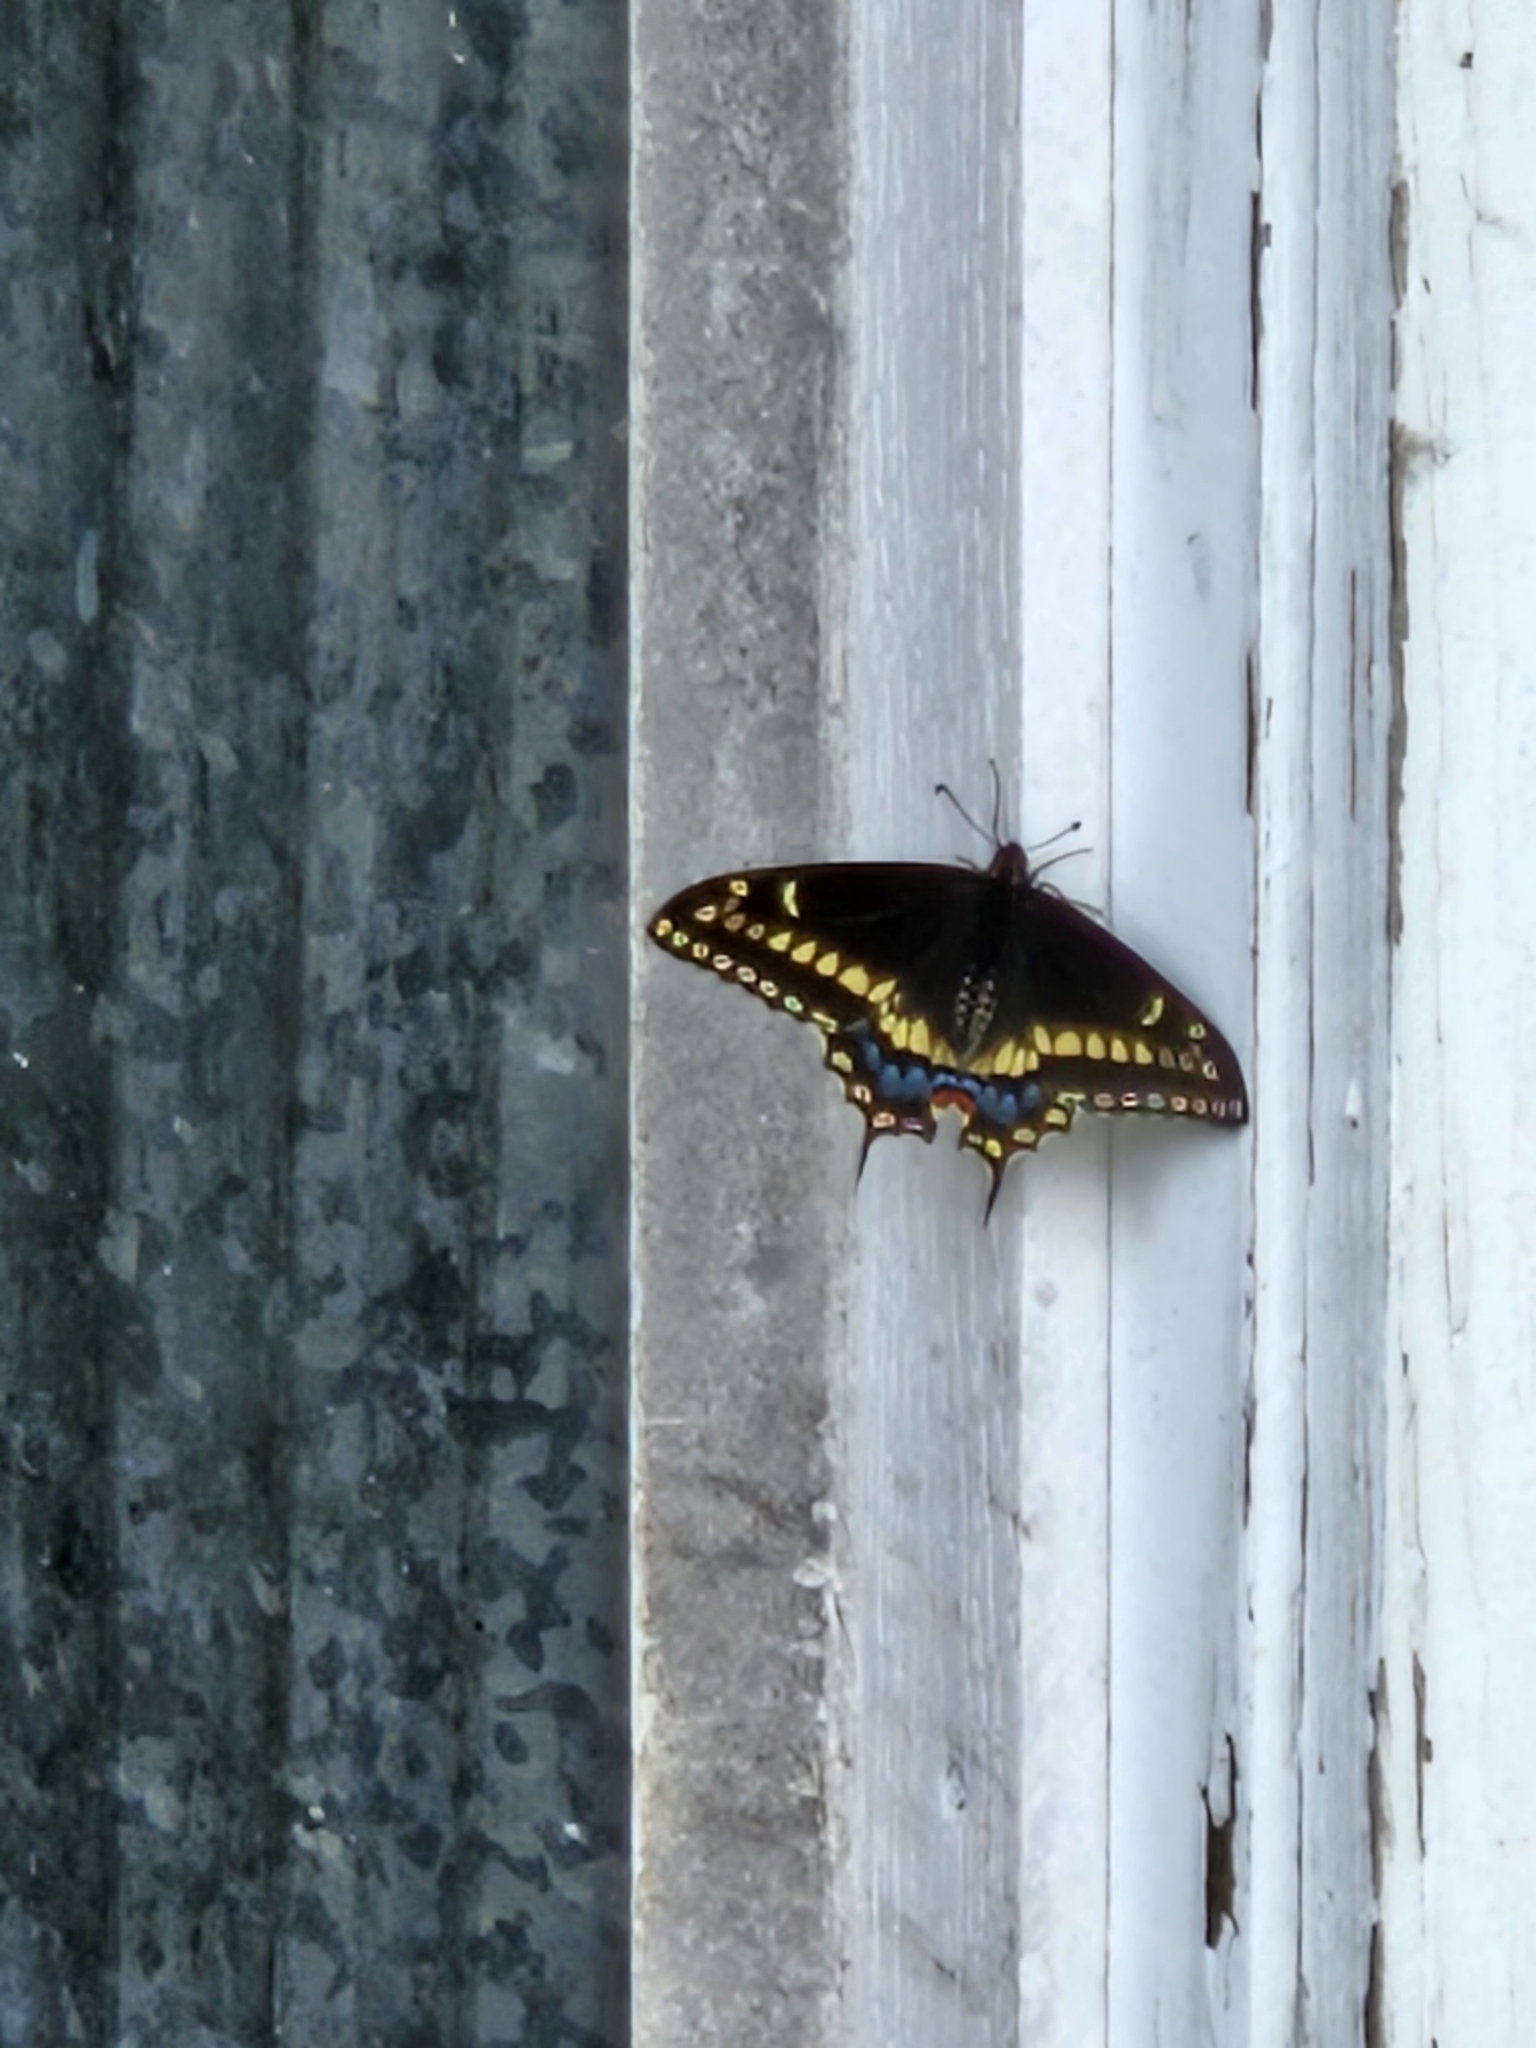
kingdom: Animalia
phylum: Arthropoda
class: Insecta
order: Lepidoptera
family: Papilionidae
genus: Papilio
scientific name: Papilio polyxenes
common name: Black swallowtail
